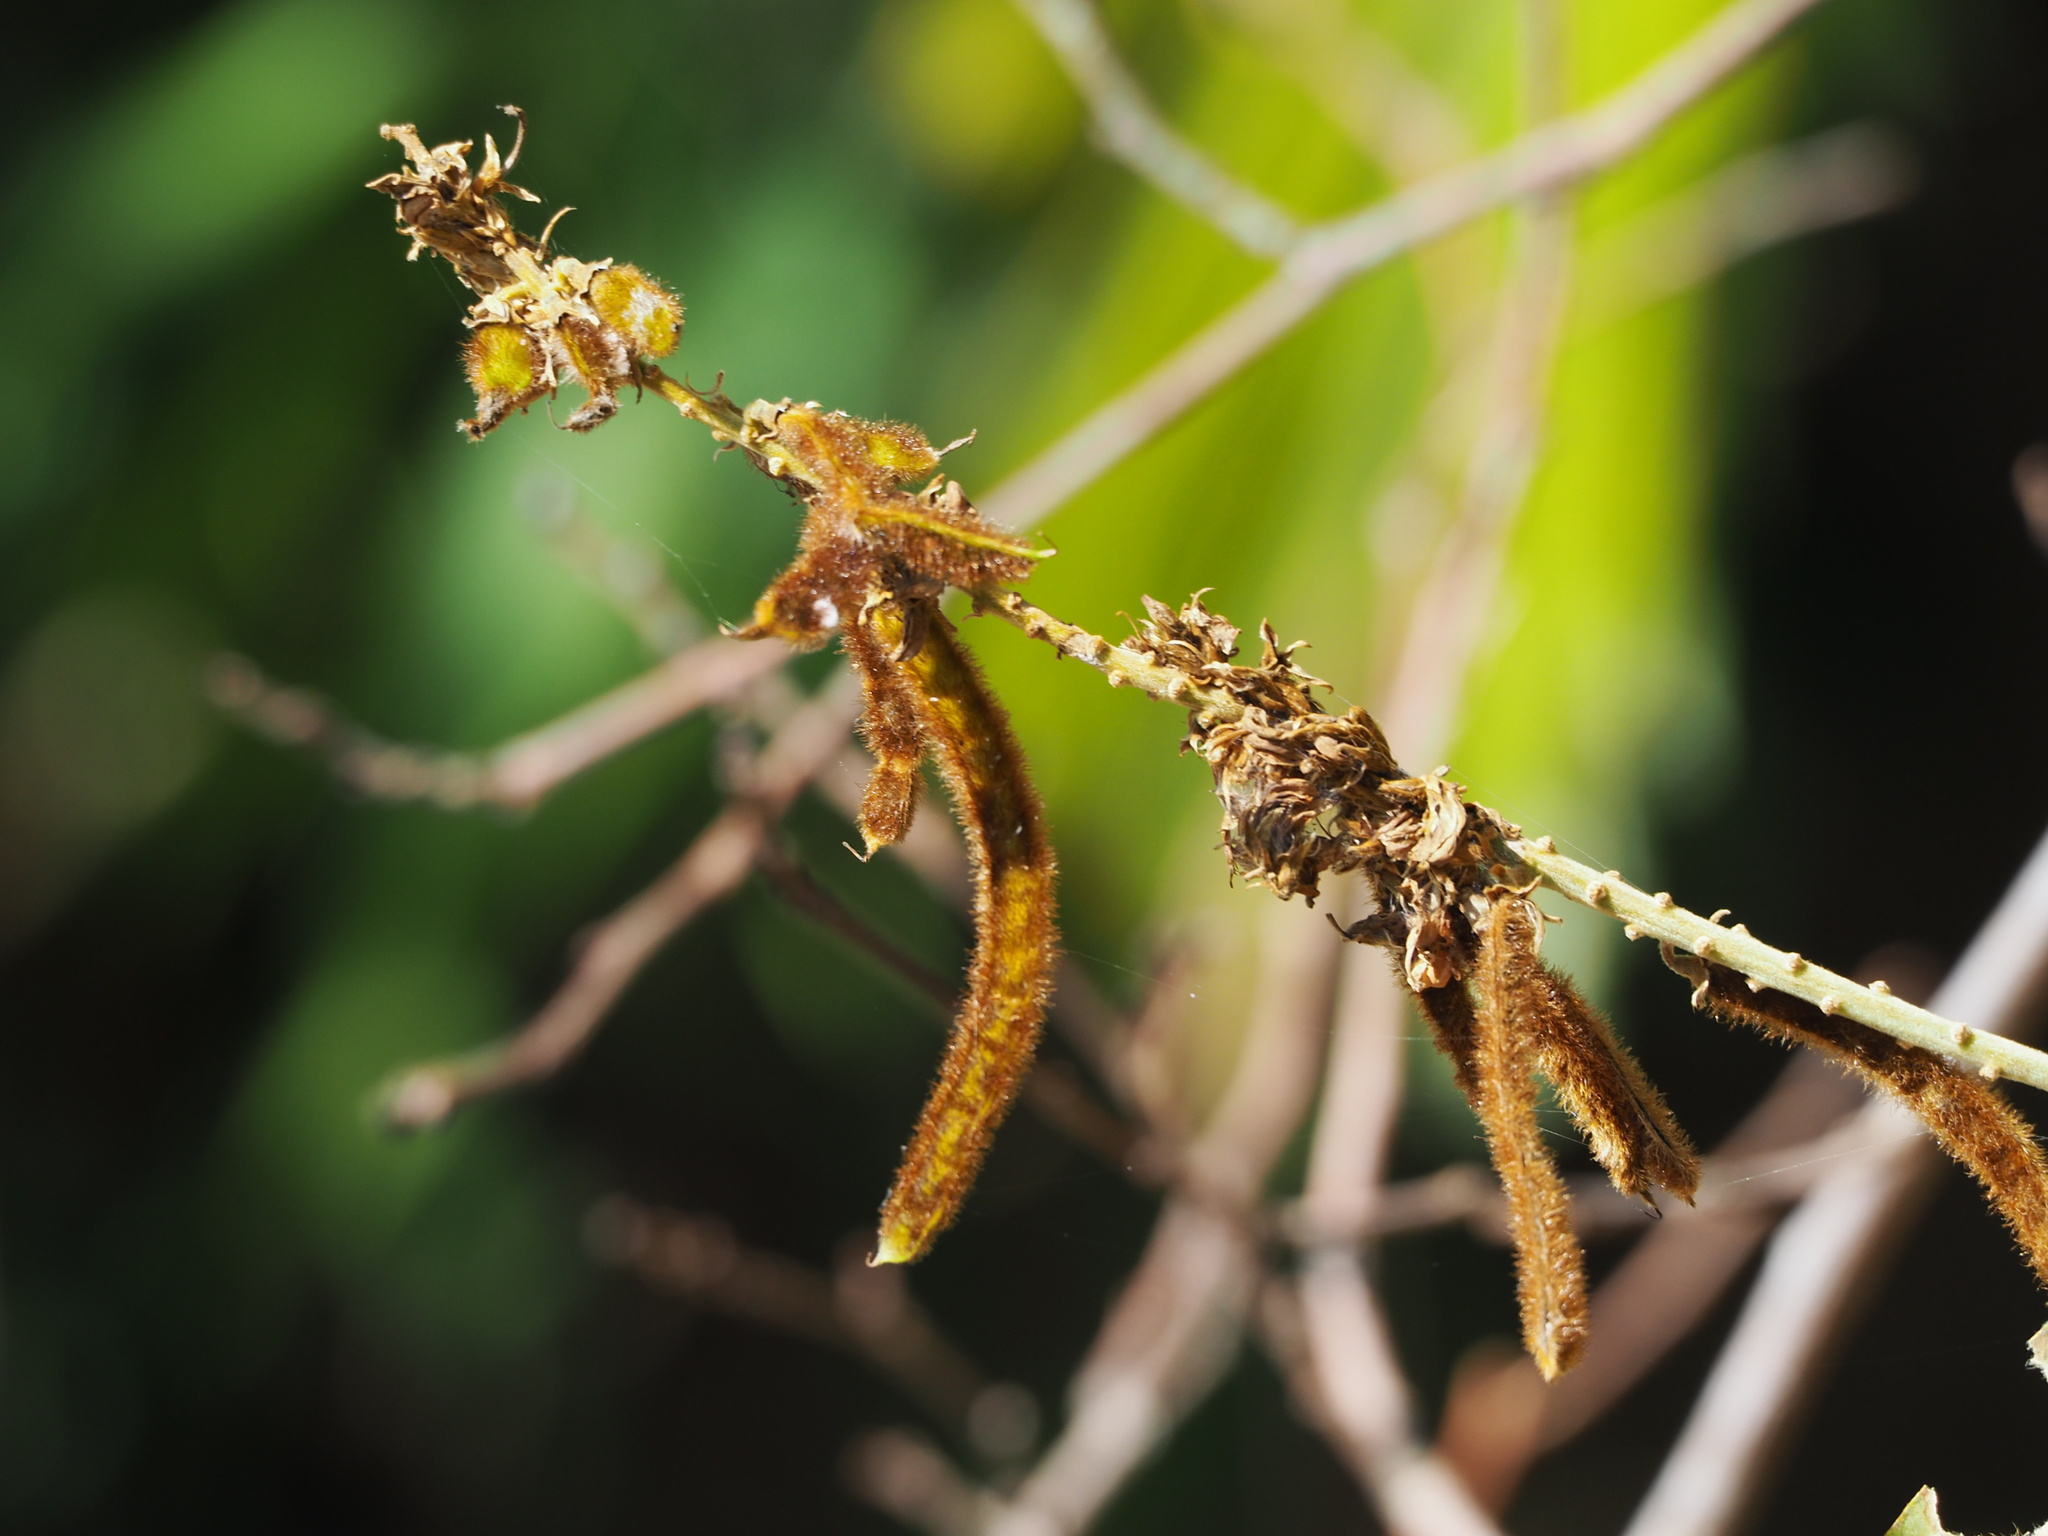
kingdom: Plantae
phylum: Tracheophyta
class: Magnoliopsida
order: Fabales
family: Fabaceae
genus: Pueraria
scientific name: Pueraria montana
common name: Kudzu
